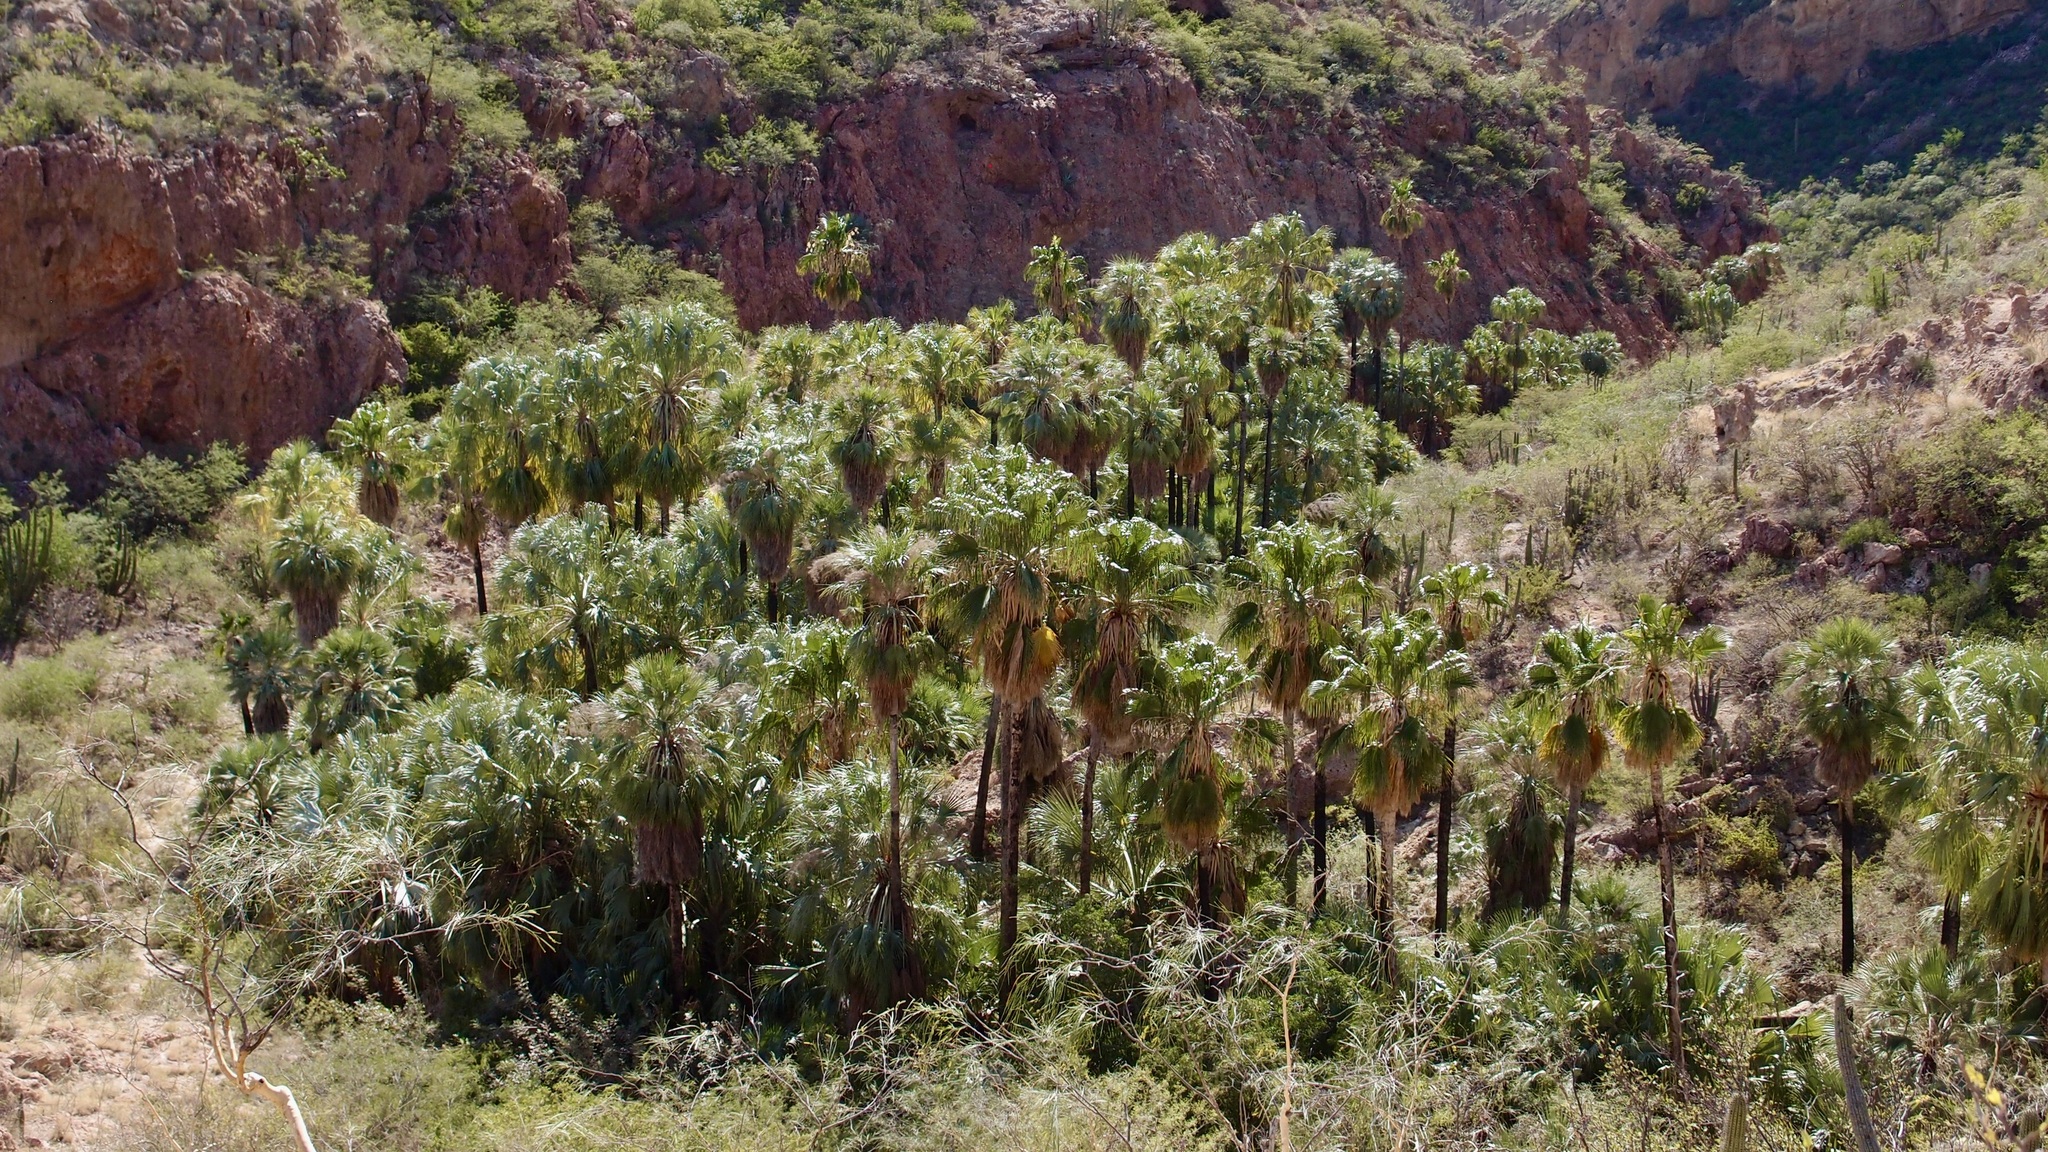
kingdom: Plantae
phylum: Tracheophyta
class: Liliopsida
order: Arecales
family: Arecaceae
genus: Washingtonia
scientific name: Washingtonia robusta
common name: Mexican fan palm
